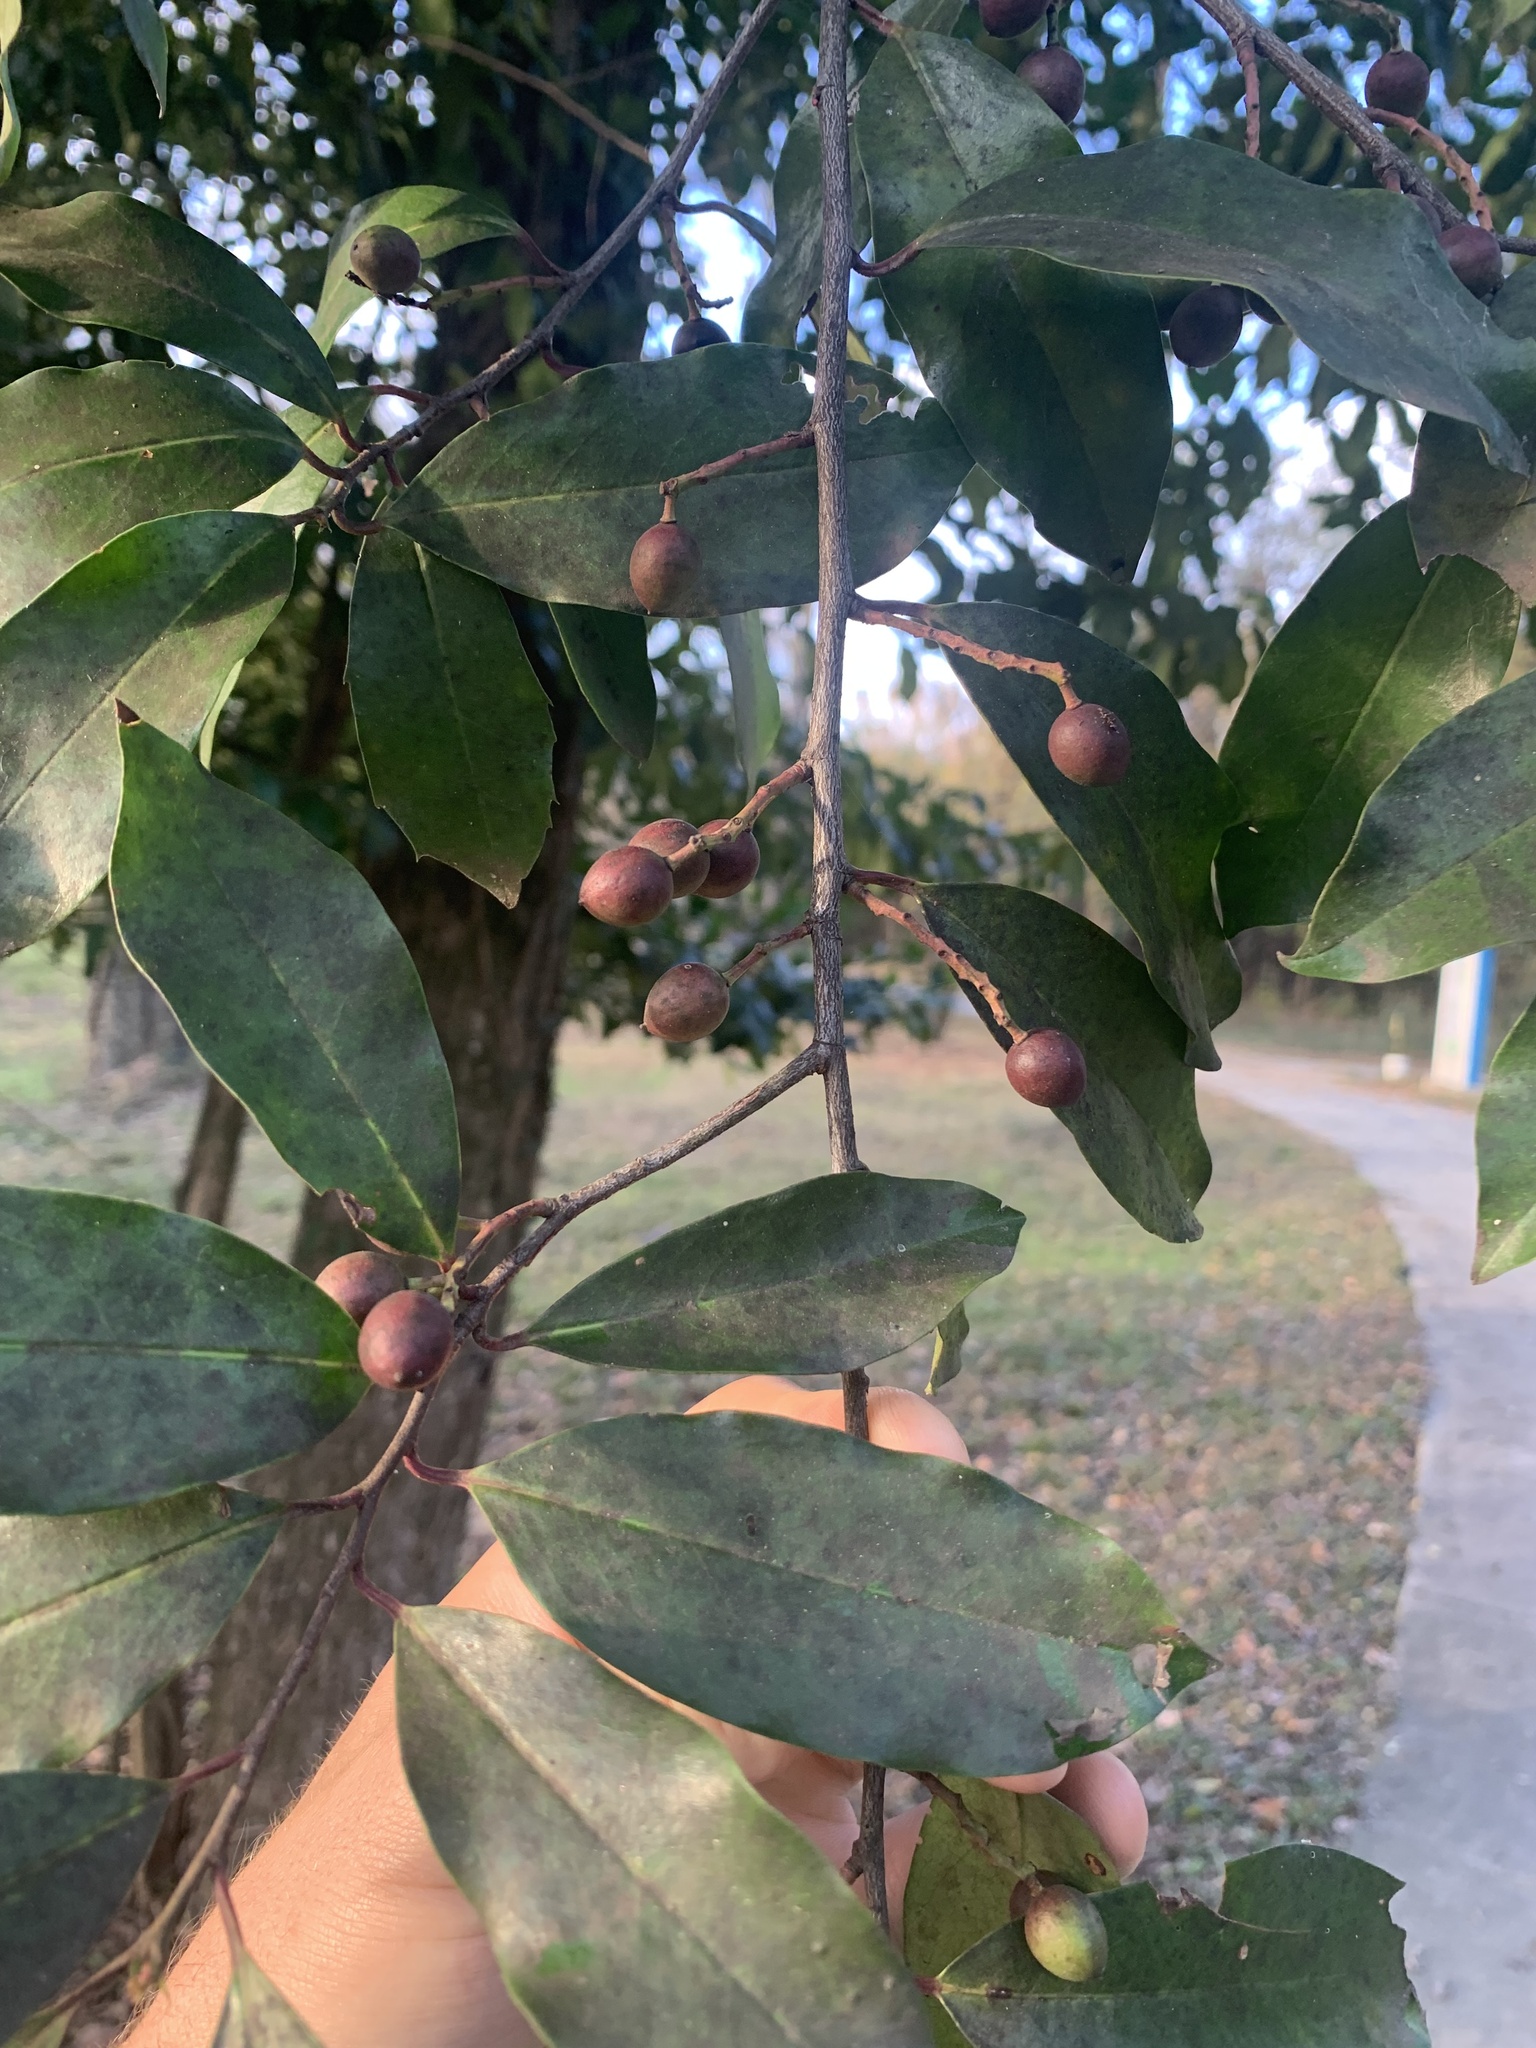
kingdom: Plantae
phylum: Tracheophyta
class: Magnoliopsida
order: Rosales
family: Rosaceae
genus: Prunus
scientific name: Prunus caroliniana
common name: Carolina laurel cherry
